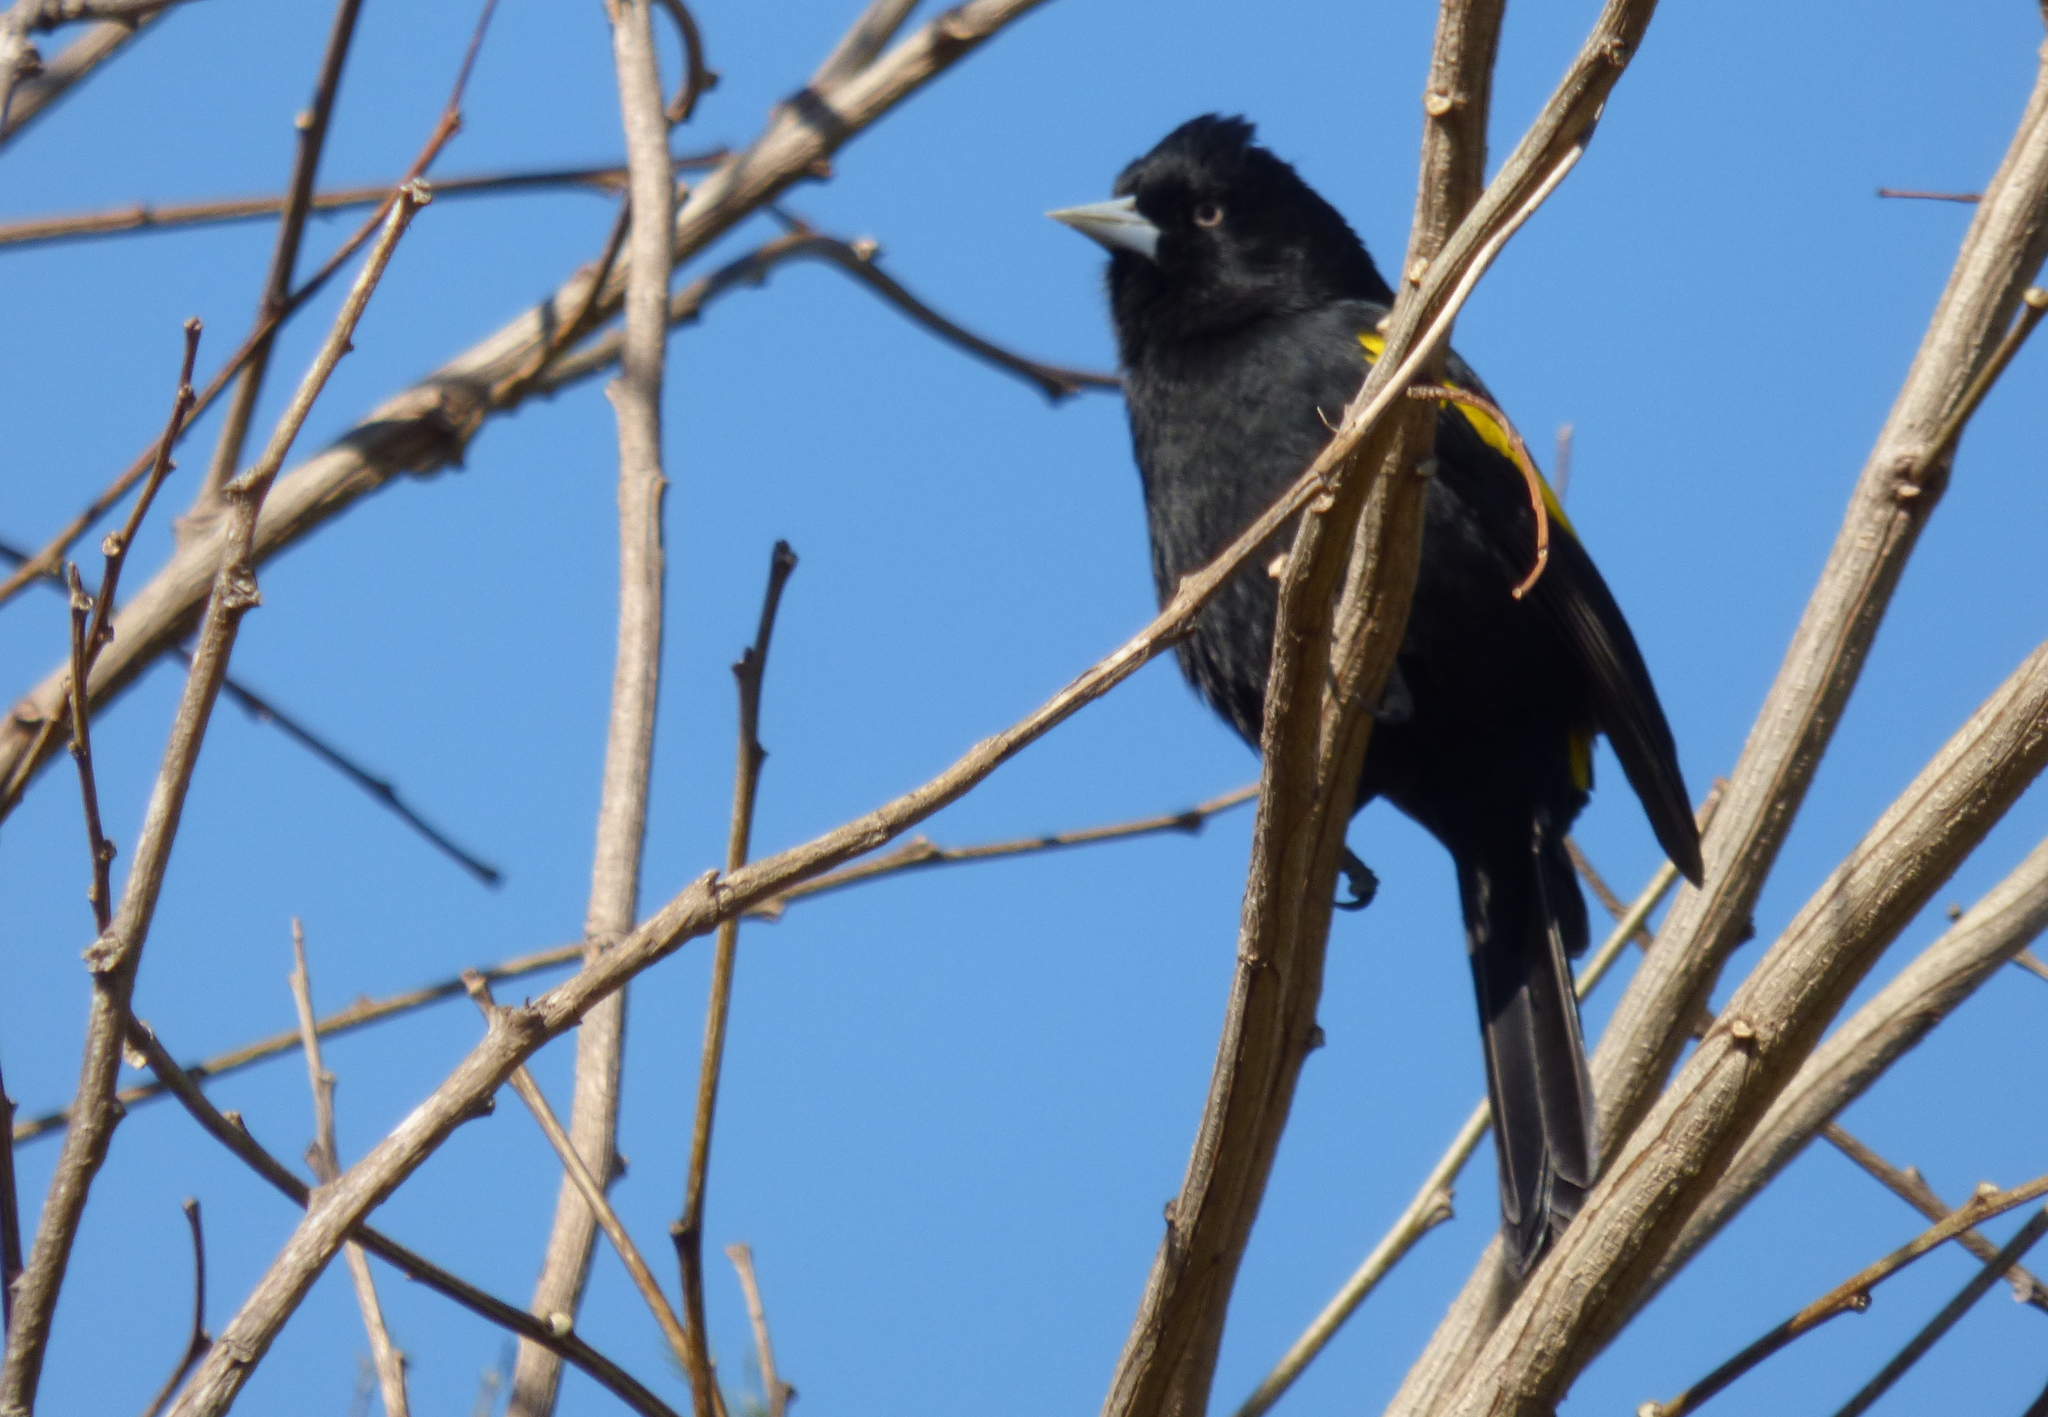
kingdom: Animalia
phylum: Chordata
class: Aves
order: Passeriformes
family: Icteridae
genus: Cacicus
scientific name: Cacicus chrysopterus
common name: Golden-winged cacique
